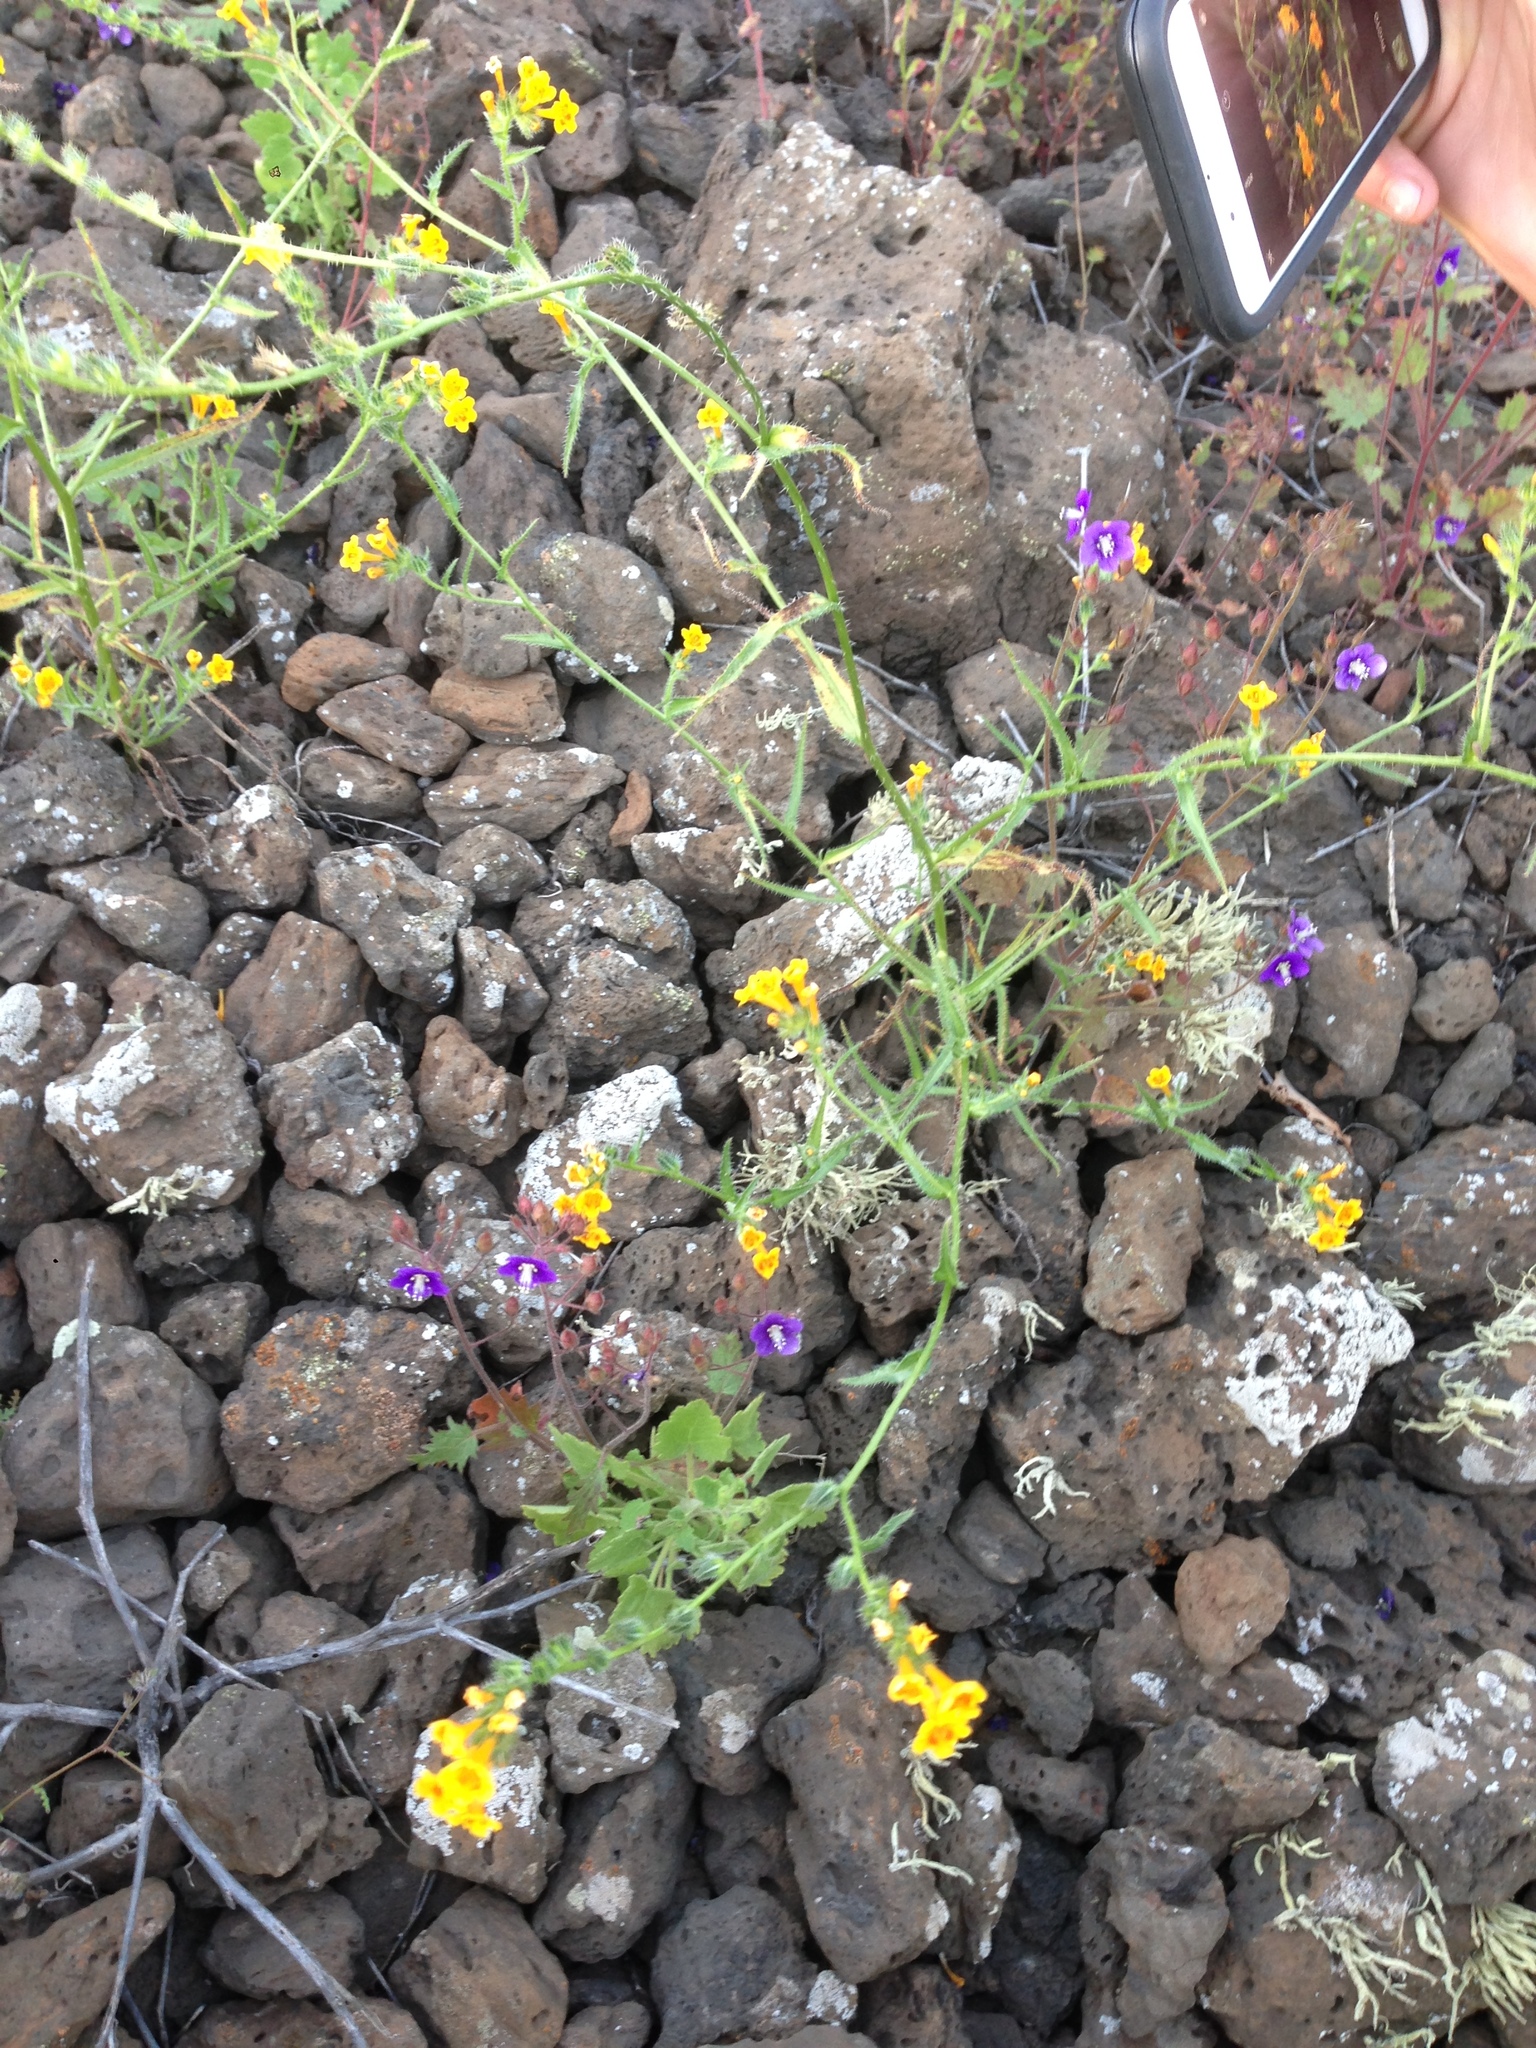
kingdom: Plantae
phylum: Tracheophyta
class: Magnoliopsida
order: Boraginales
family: Boraginaceae
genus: Amsinckia
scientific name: Amsinckia inepta
